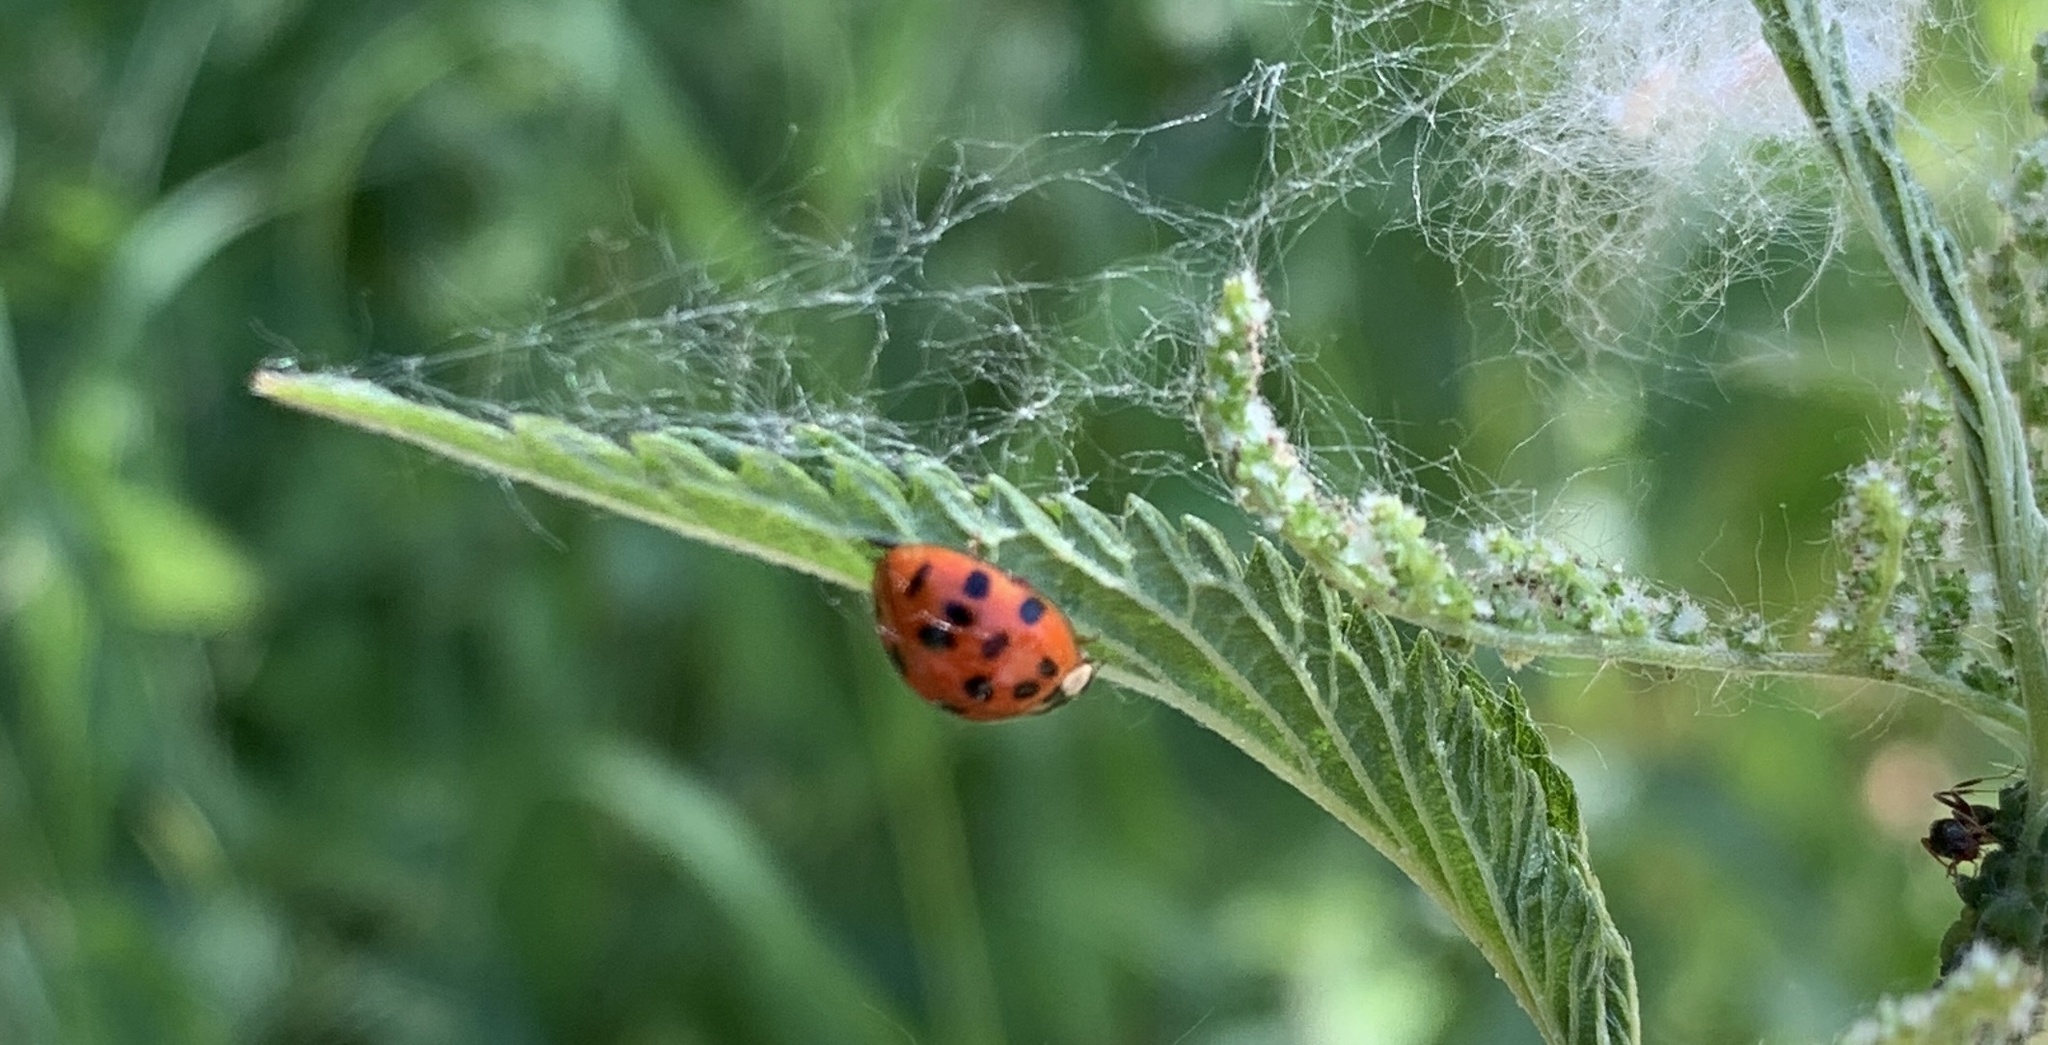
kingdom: Animalia
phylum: Arthropoda
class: Insecta
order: Coleoptera
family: Coccinellidae
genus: Harmonia
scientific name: Harmonia axyridis
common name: Harlequin ladybird
